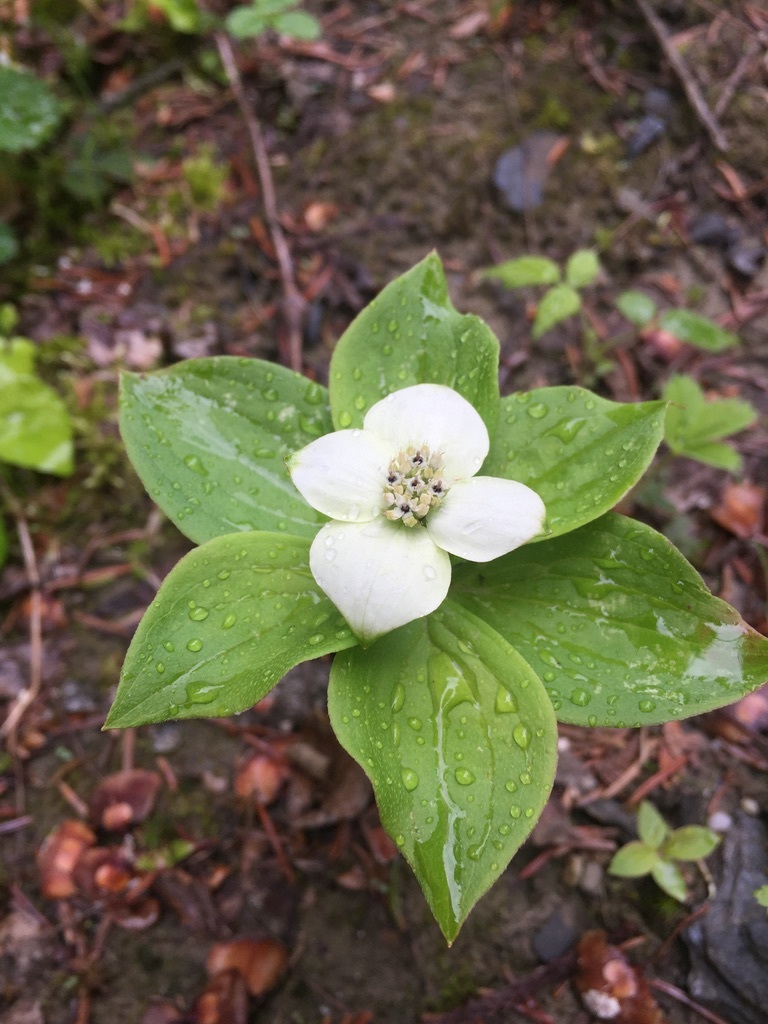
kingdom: Plantae
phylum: Tracheophyta
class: Magnoliopsida
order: Cornales
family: Cornaceae
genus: Cornus
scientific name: Cornus canadensis
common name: Creeping dogwood
